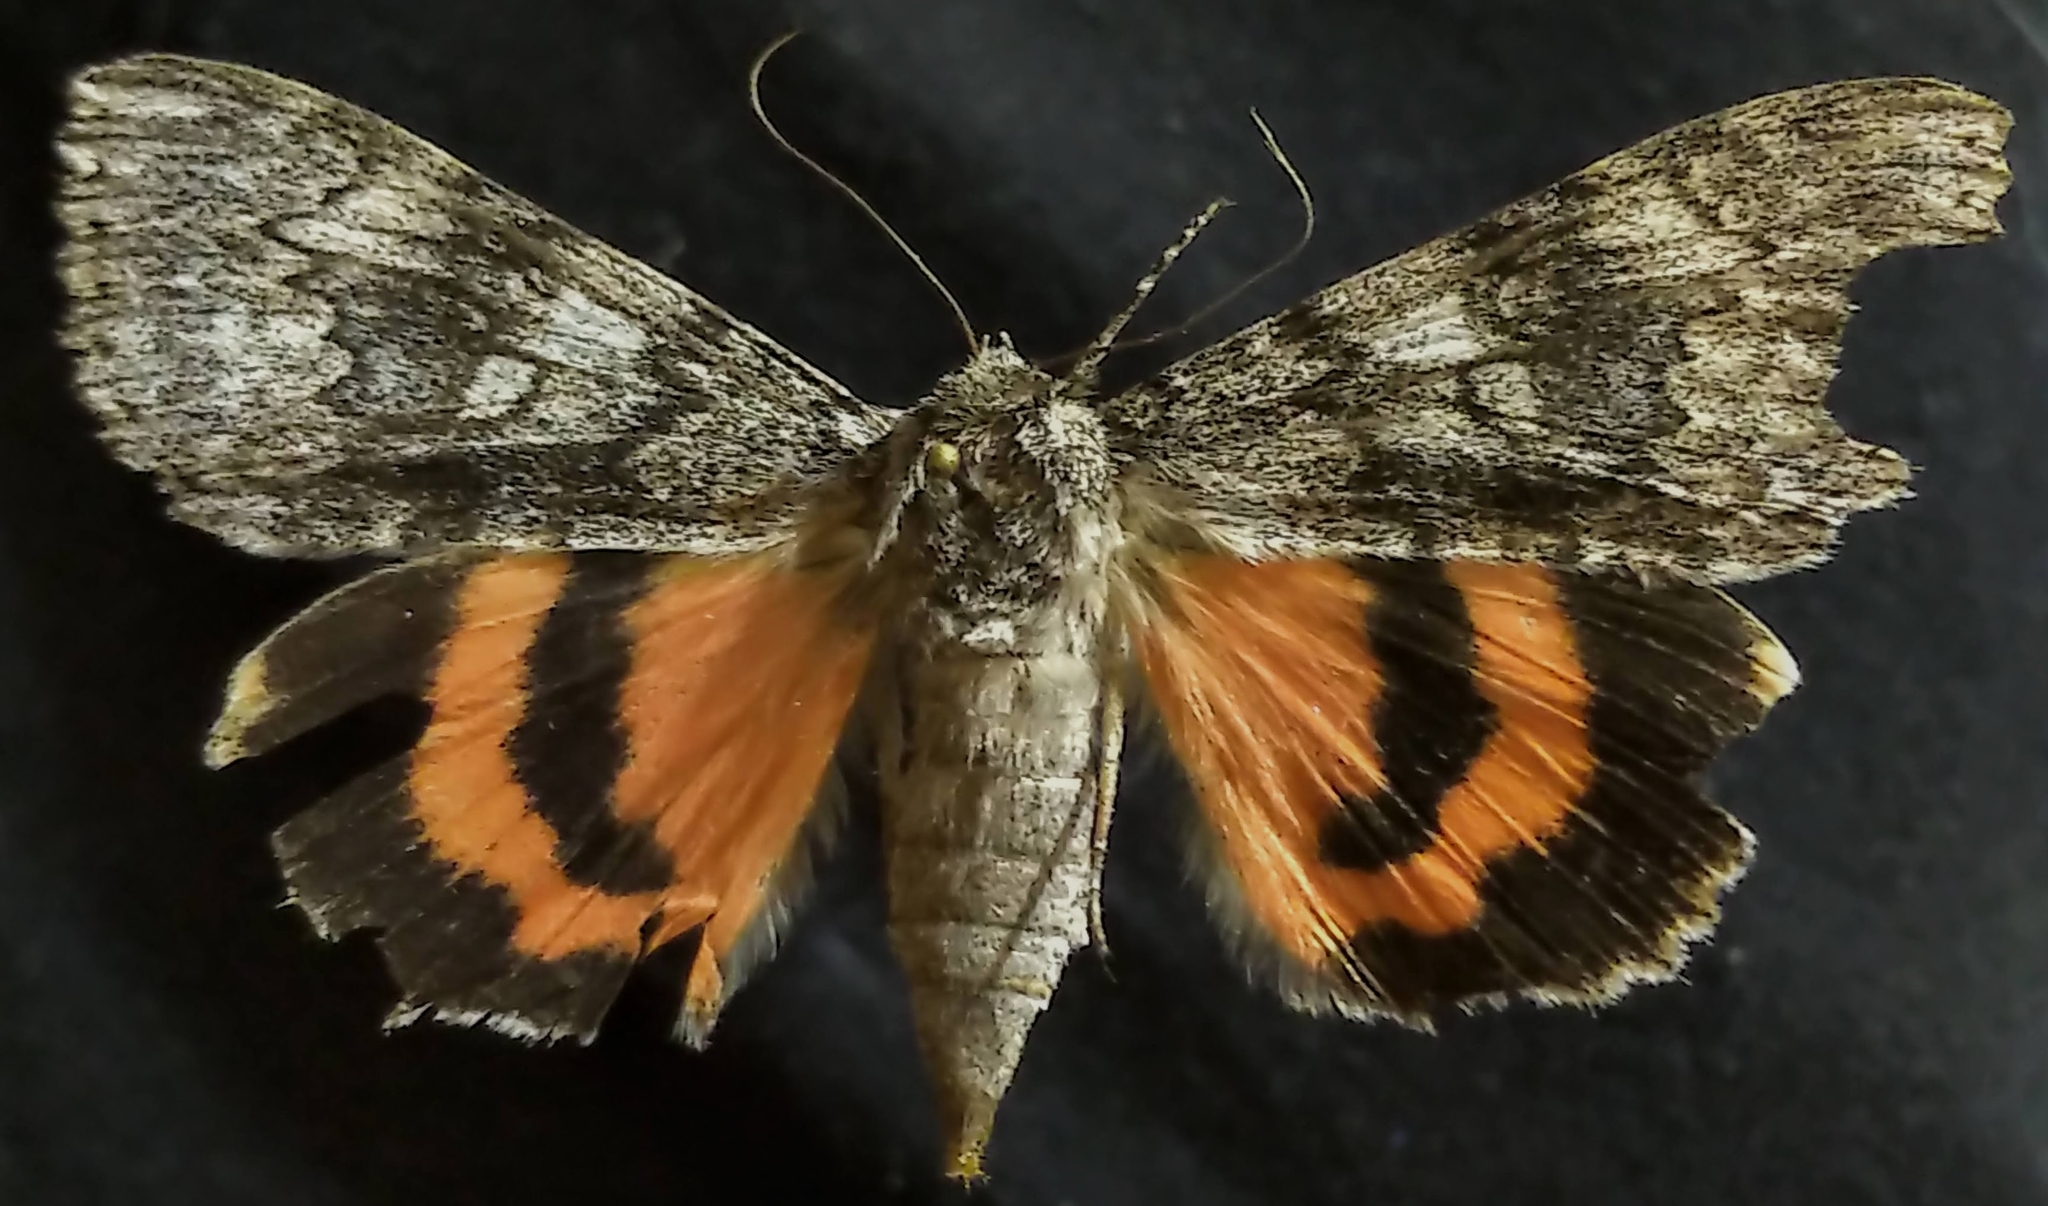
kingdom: Animalia
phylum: Arthropoda
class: Insecta
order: Lepidoptera
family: Erebidae
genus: Catocala
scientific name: Catocala semirelicta
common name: Semirelict underwing moth
